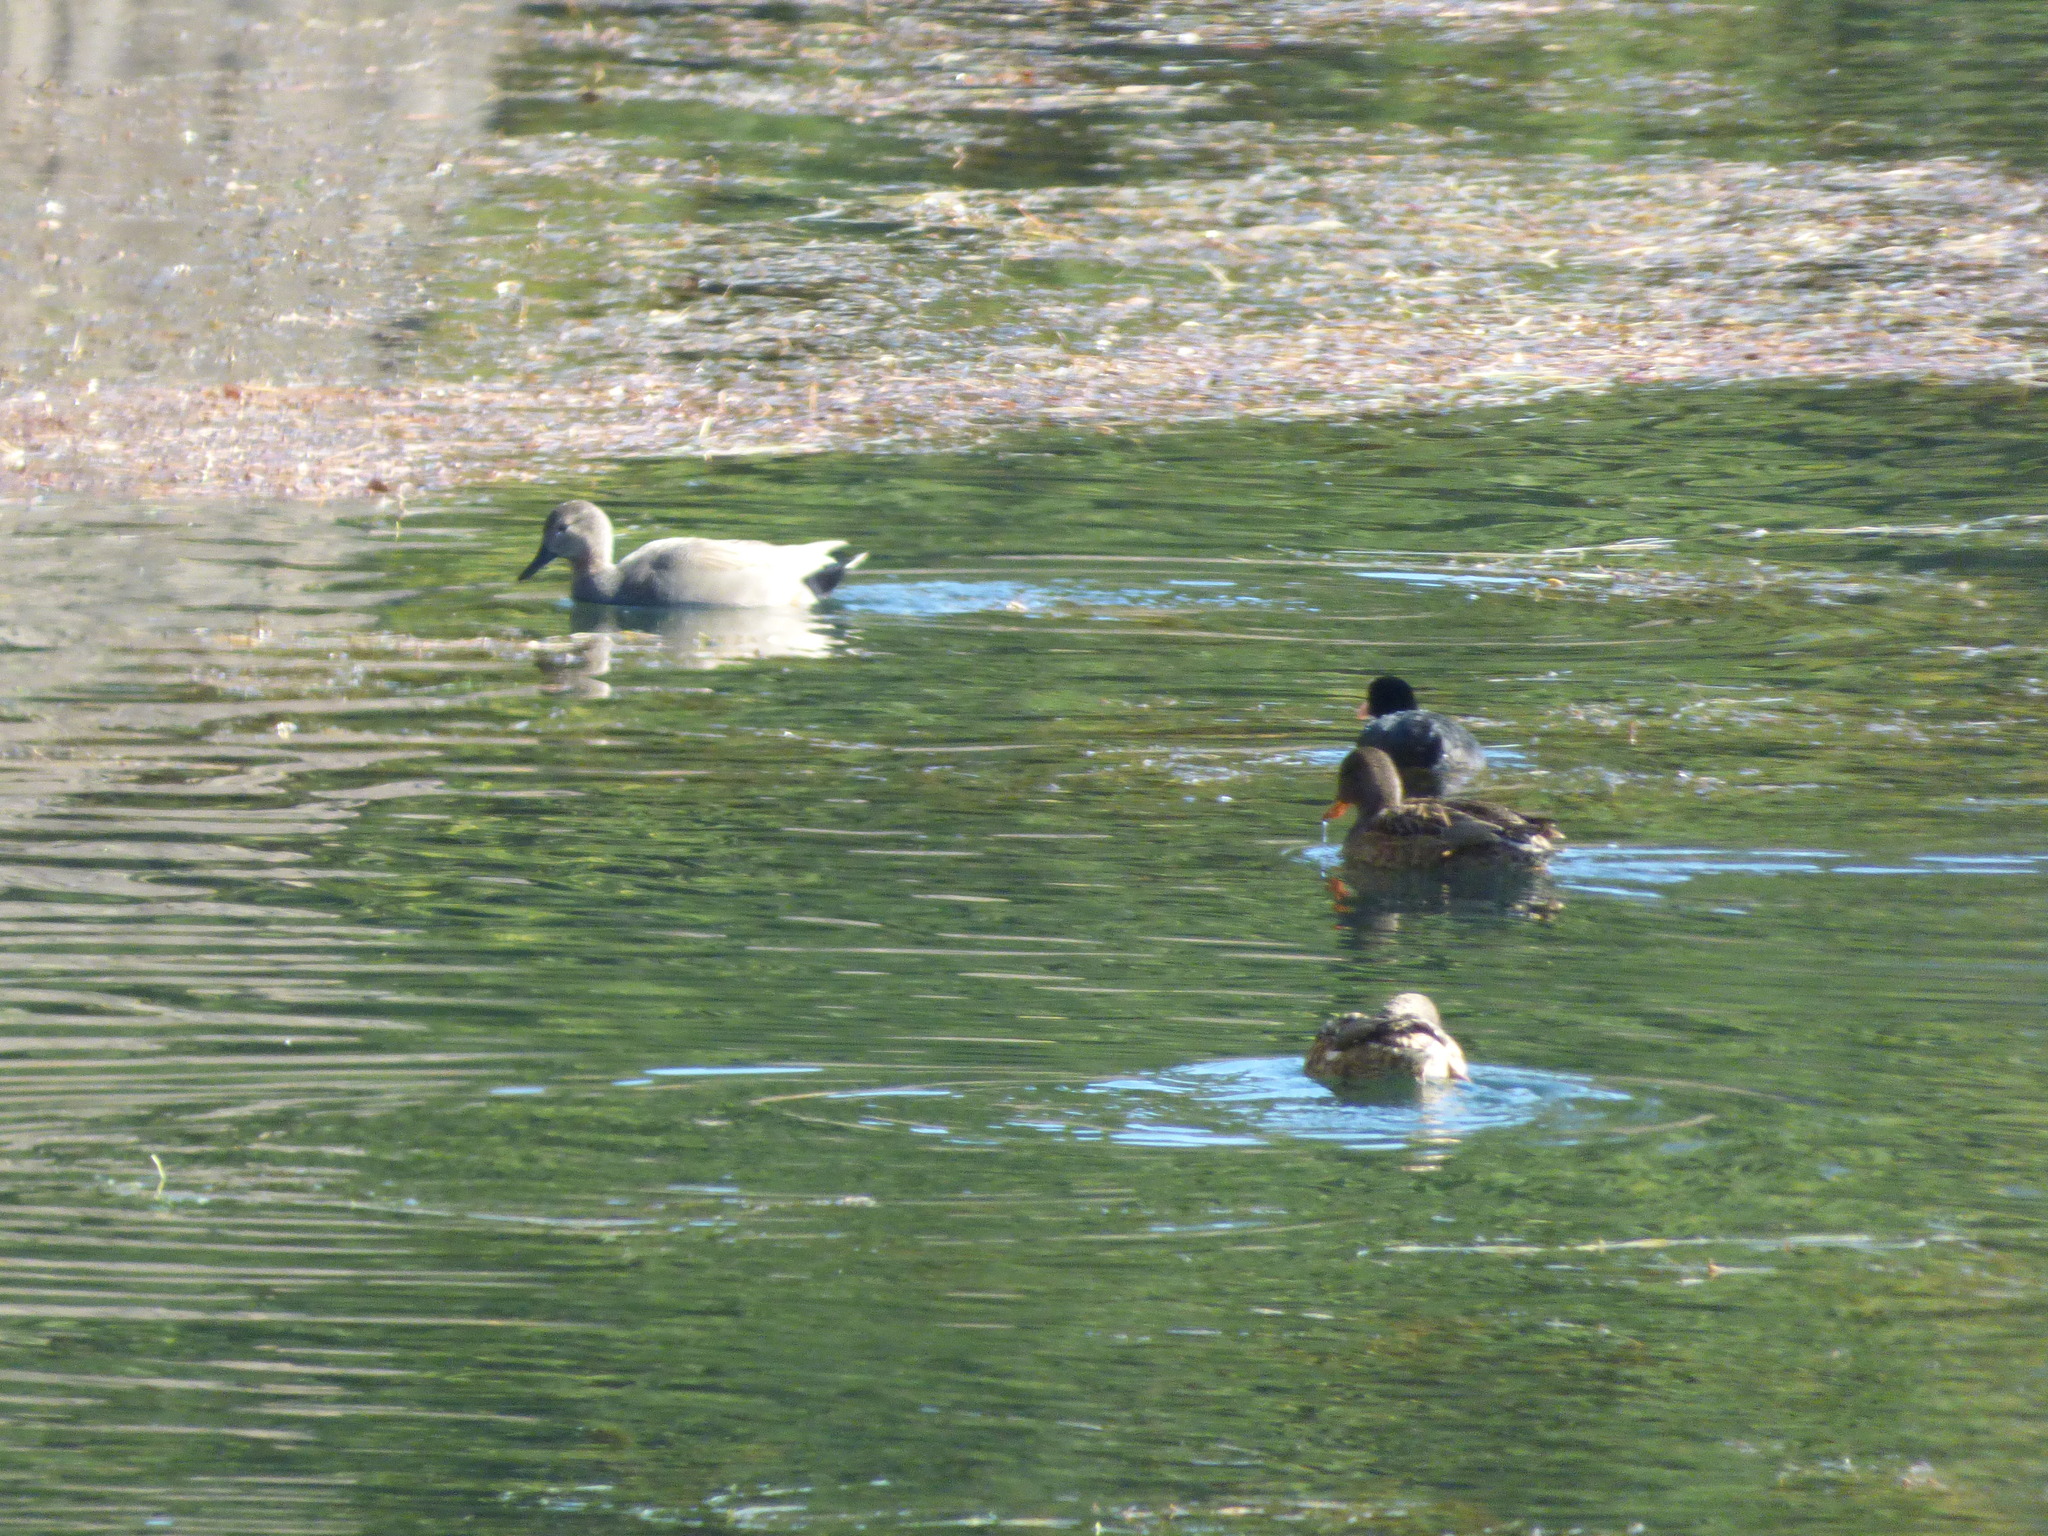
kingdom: Animalia
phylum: Chordata
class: Aves
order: Anseriformes
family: Anatidae
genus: Mareca
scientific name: Mareca strepera
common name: Gadwall
